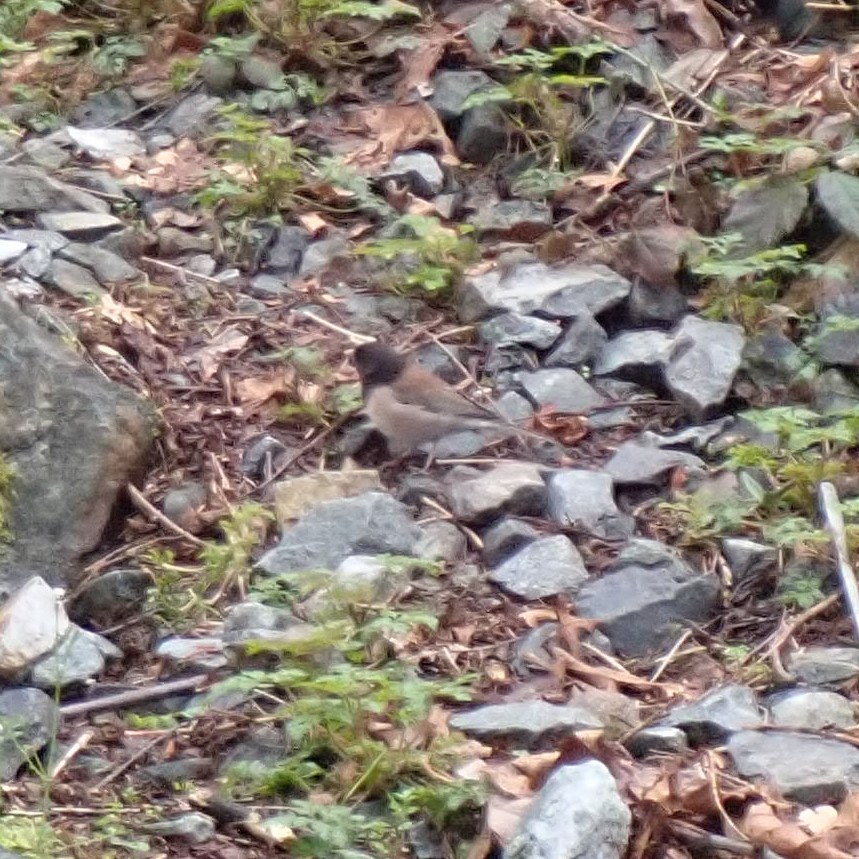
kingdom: Animalia
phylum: Chordata
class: Aves
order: Passeriformes
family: Passerellidae
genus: Junco
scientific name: Junco hyemalis
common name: Dark-eyed junco
